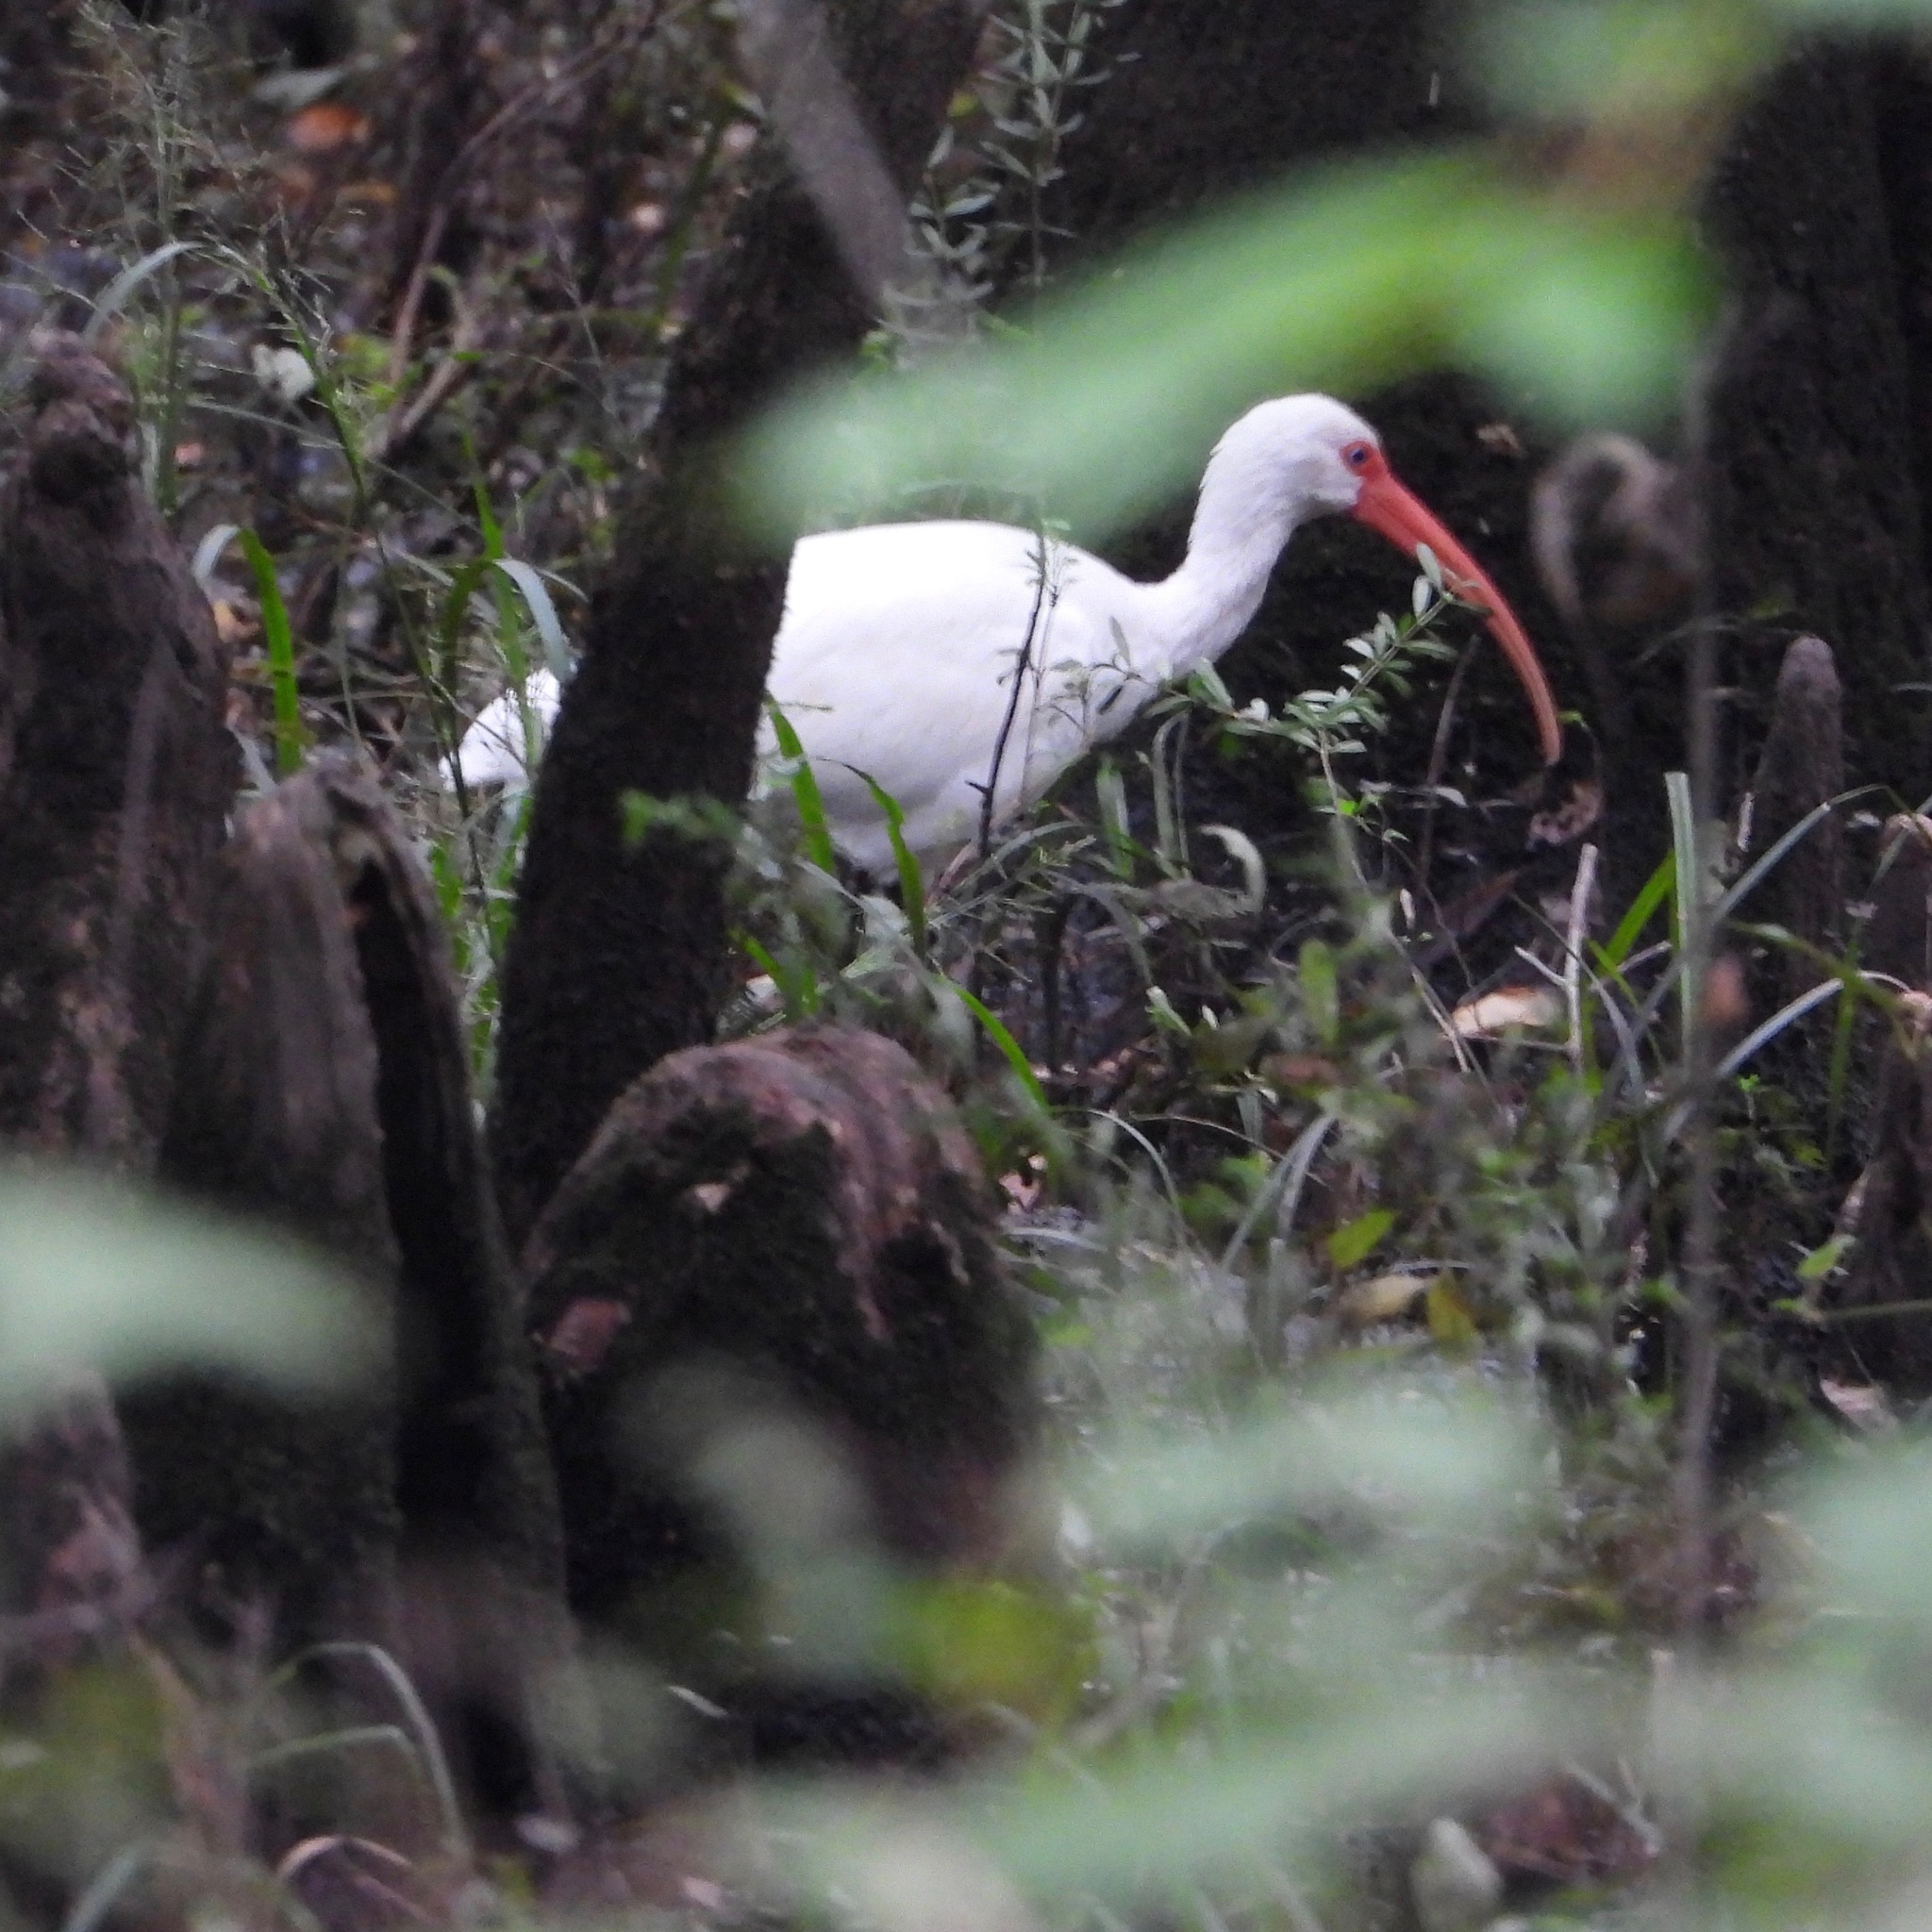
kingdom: Animalia
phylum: Chordata
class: Aves
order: Pelecaniformes
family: Threskiornithidae
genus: Eudocimus
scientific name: Eudocimus albus
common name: White ibis
